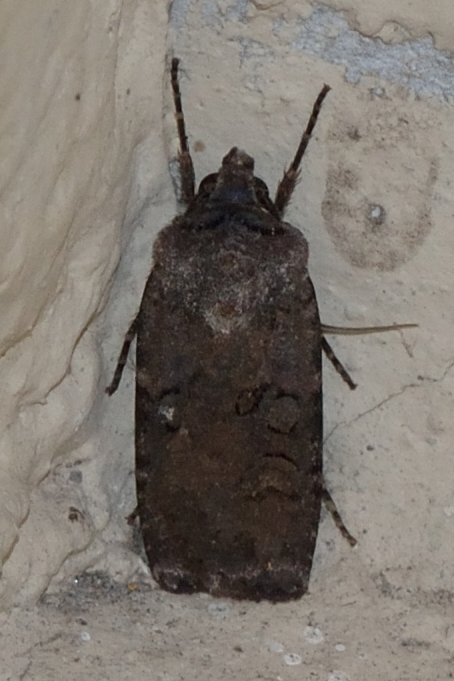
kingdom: Animalia
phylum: Arthropoda
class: Insecta
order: Lepidoptera
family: Noctuidae
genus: Euxoa
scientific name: Euxoa nigricans
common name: Garden dart
